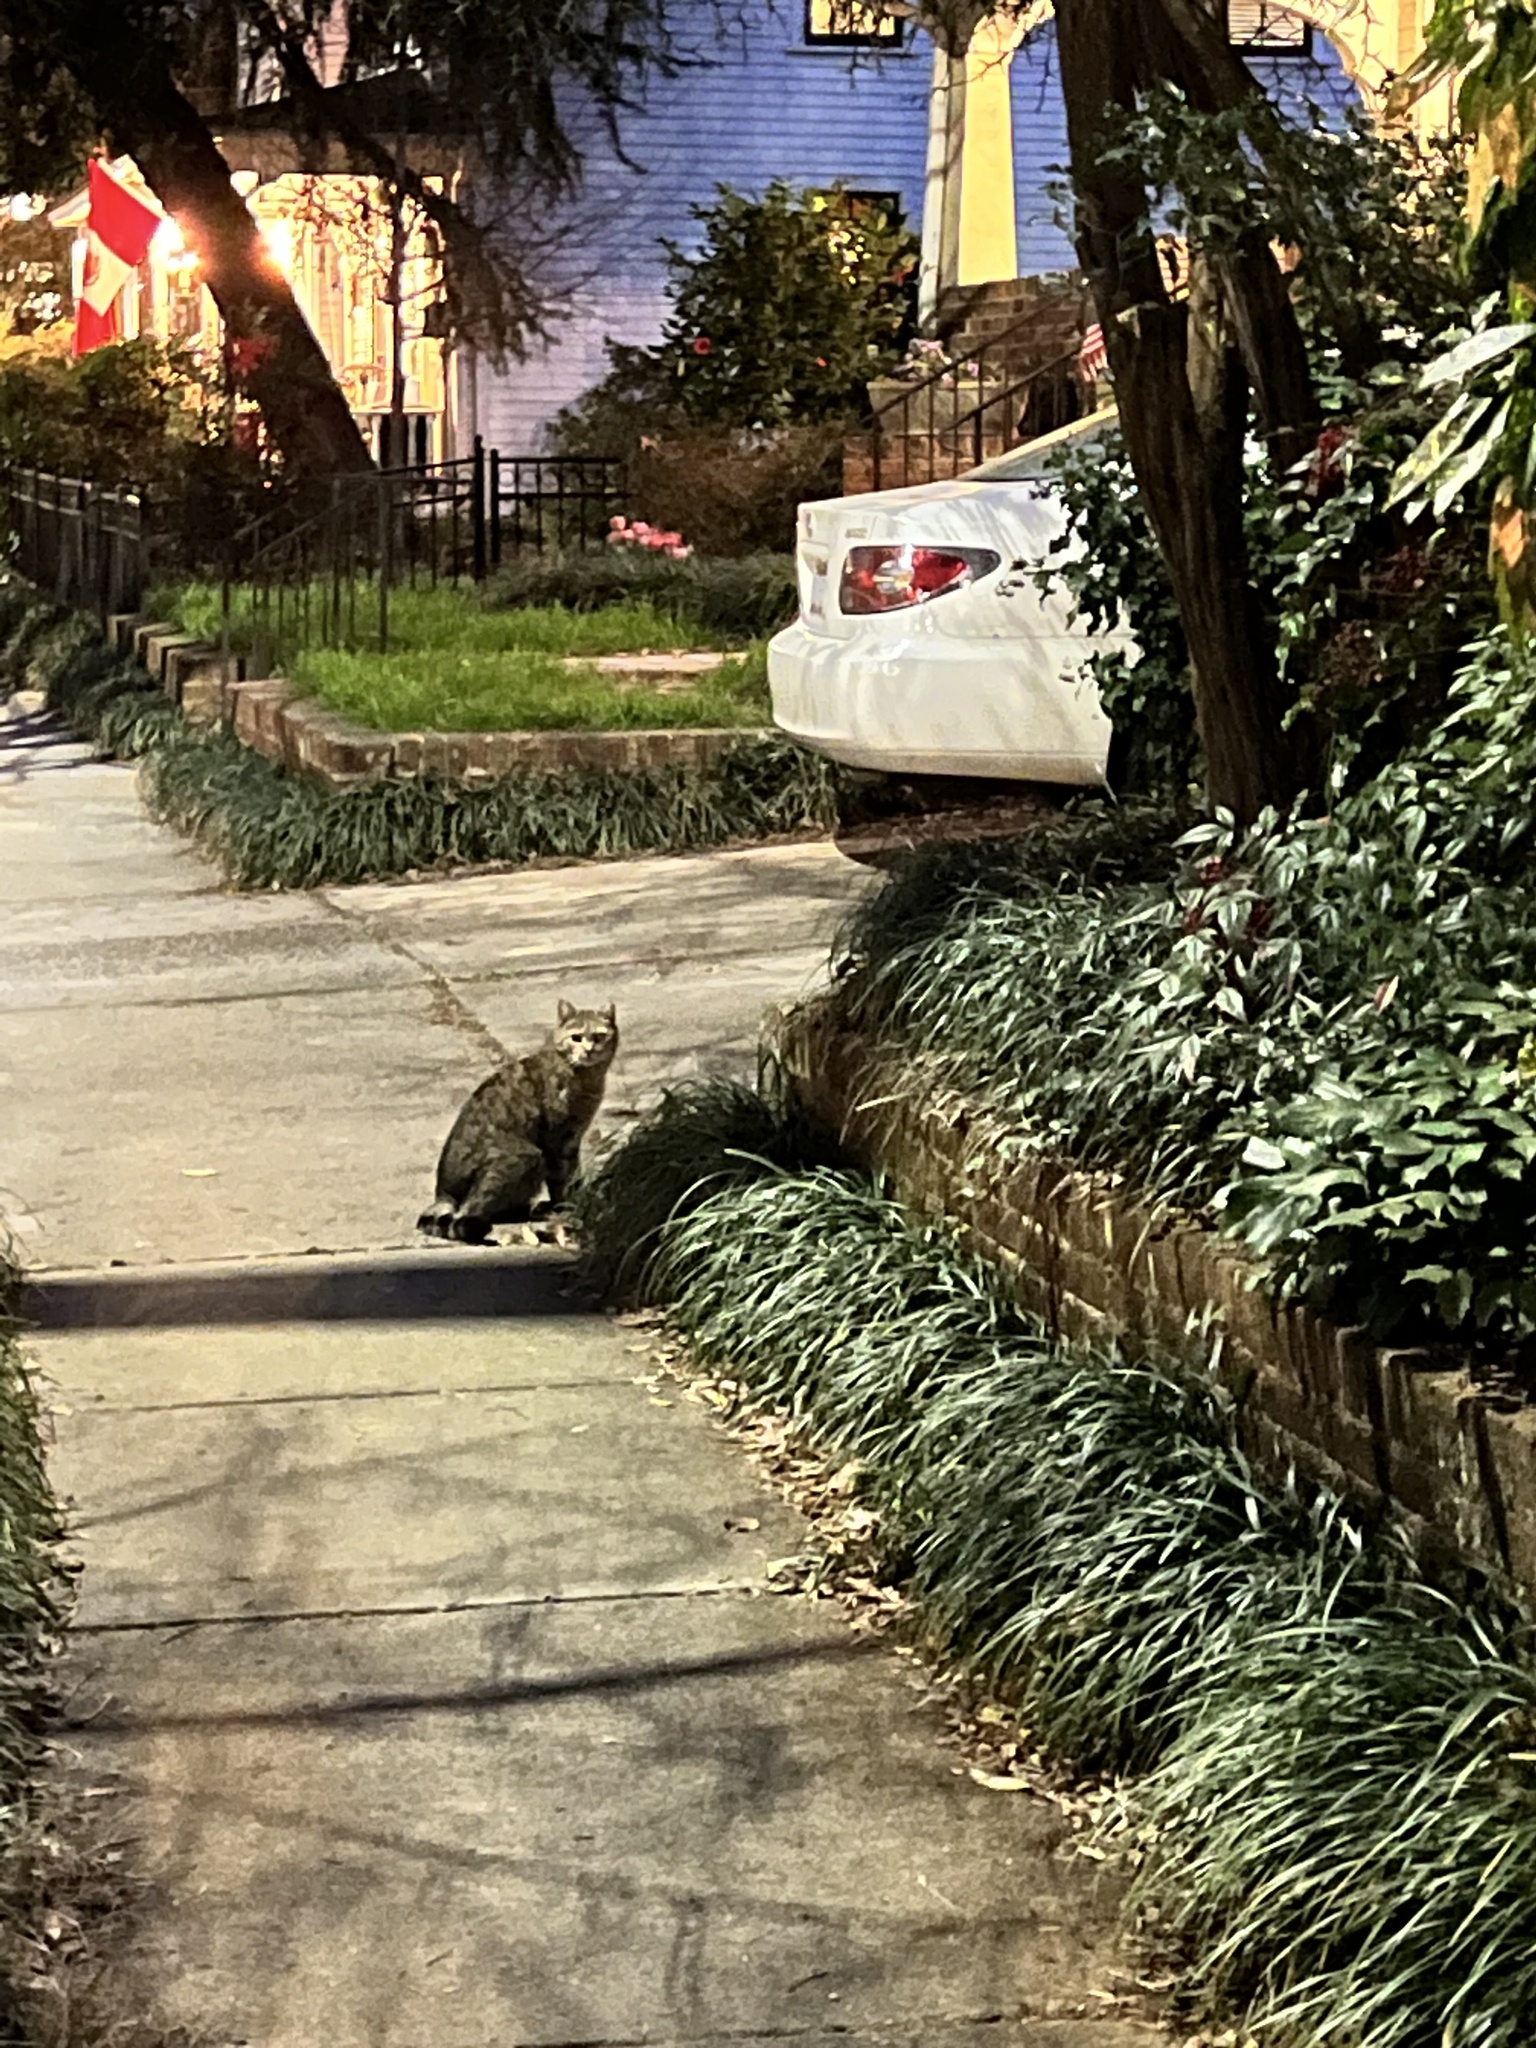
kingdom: Animalia
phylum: Chordata
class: Mammalia
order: Carnivora
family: Felidae
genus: Felis
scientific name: Felis catus
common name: Domestic cat
